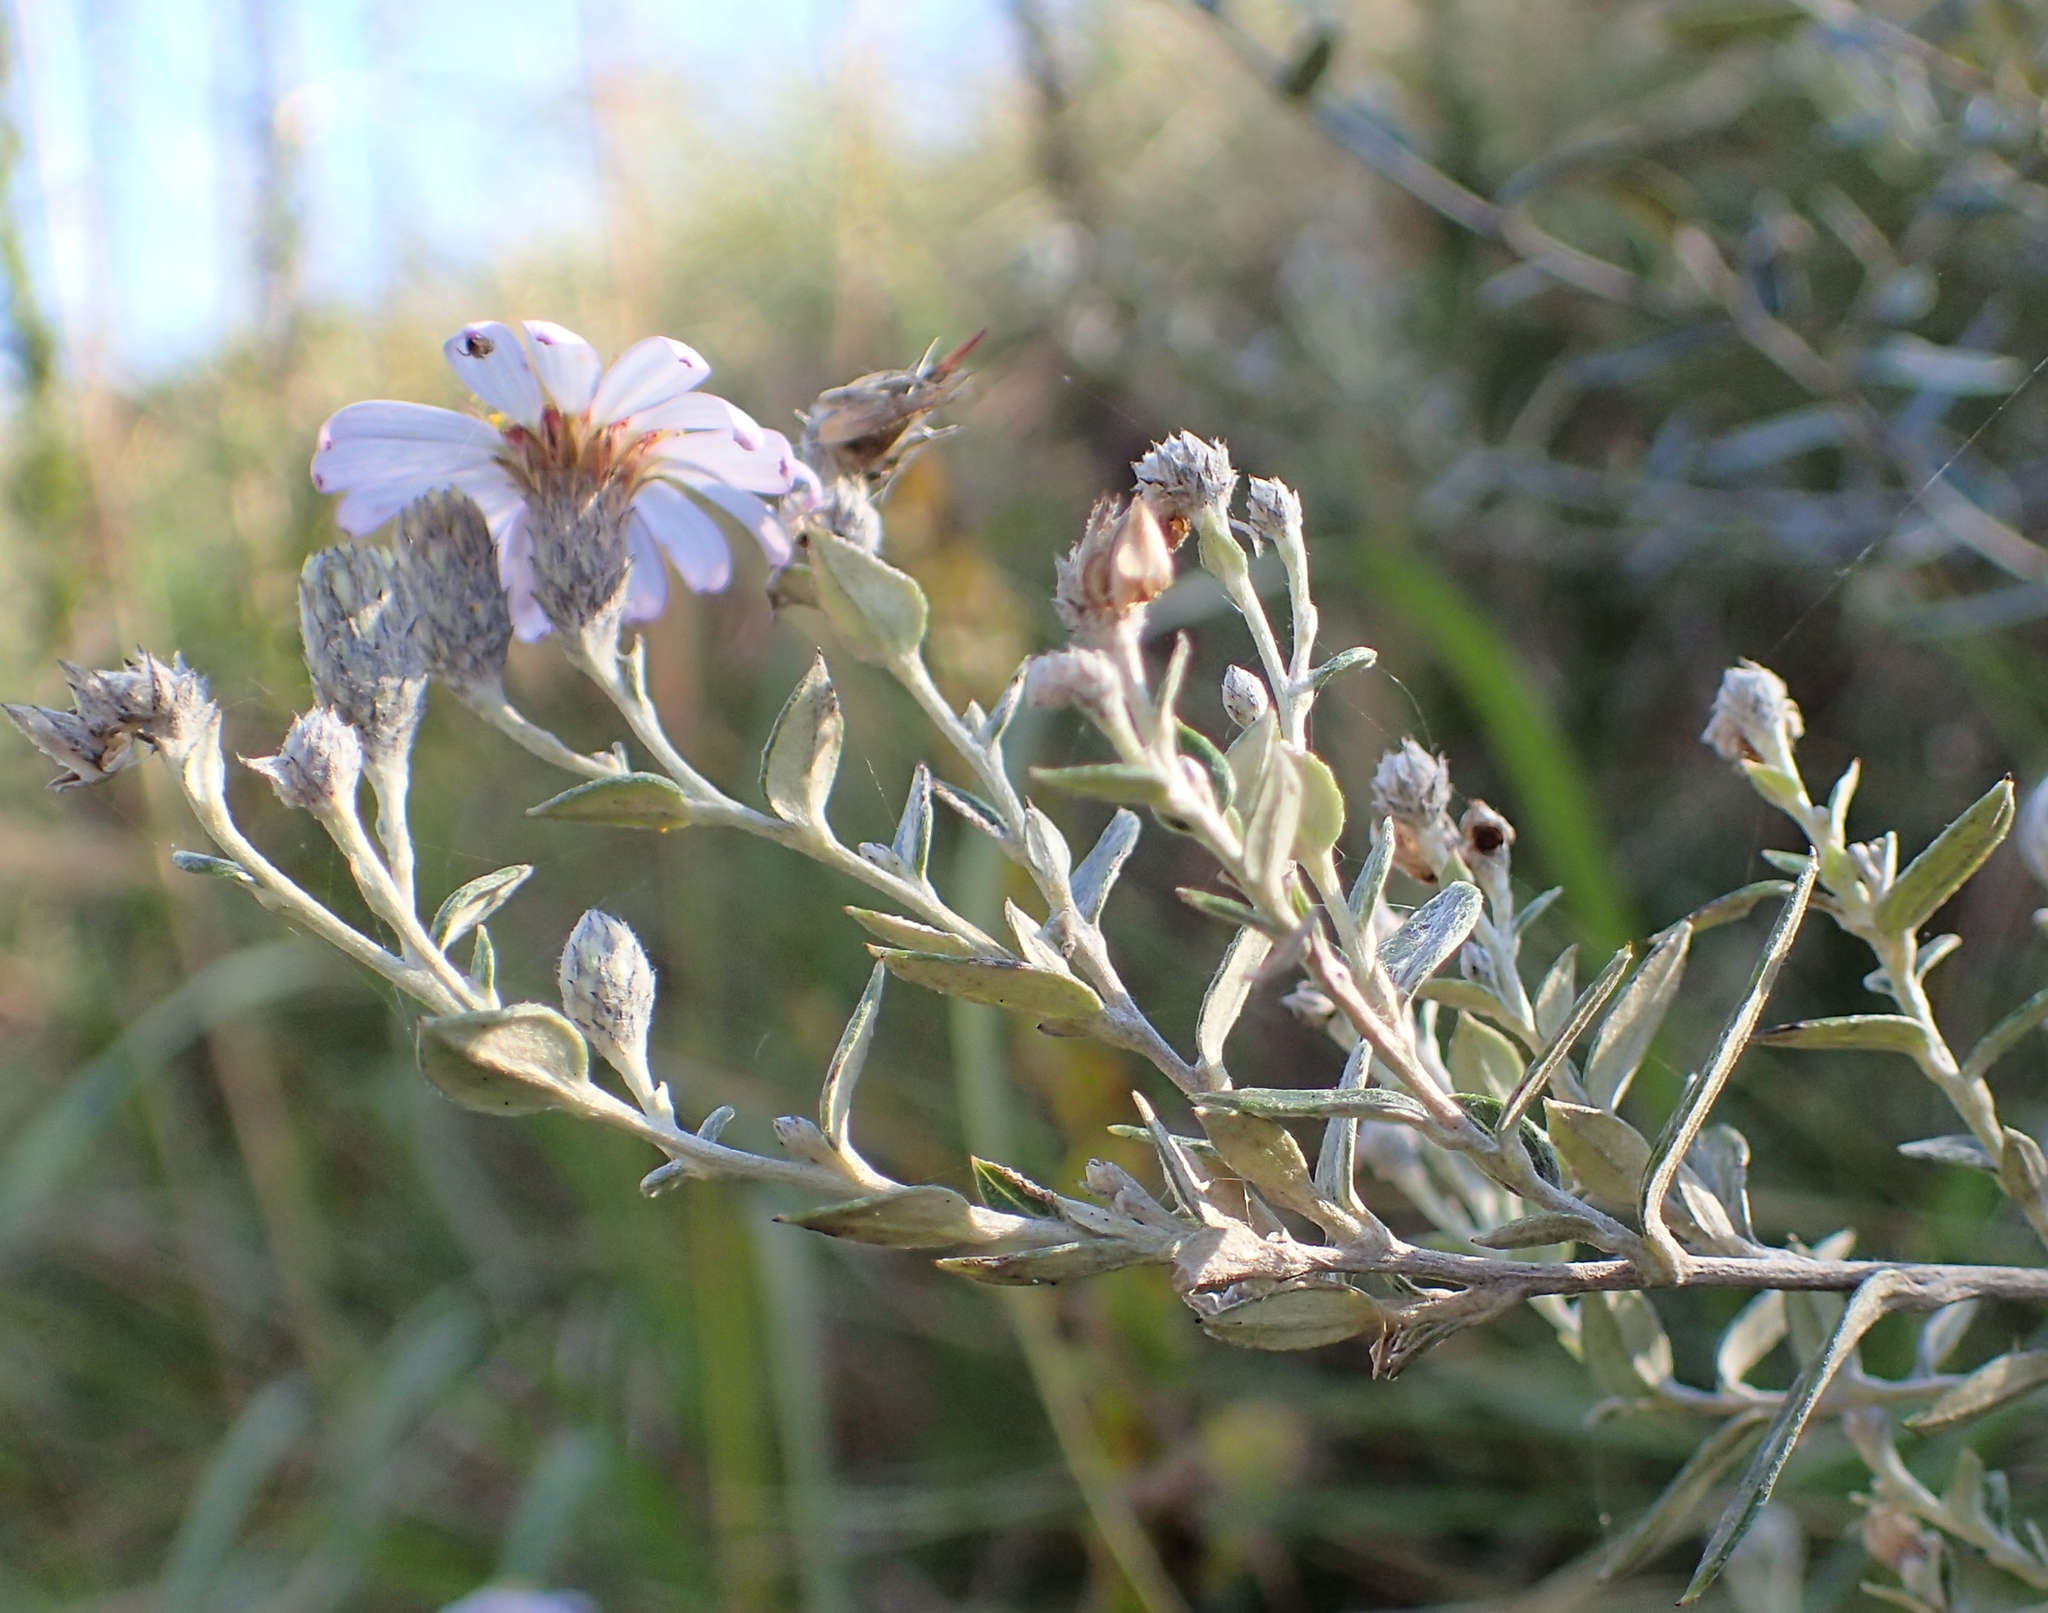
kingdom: Plantae
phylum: Tracheophyta
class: Magnoliopsida
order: Asterales
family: Asteraceae
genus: Athrixia
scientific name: Athrixia phylicoides
